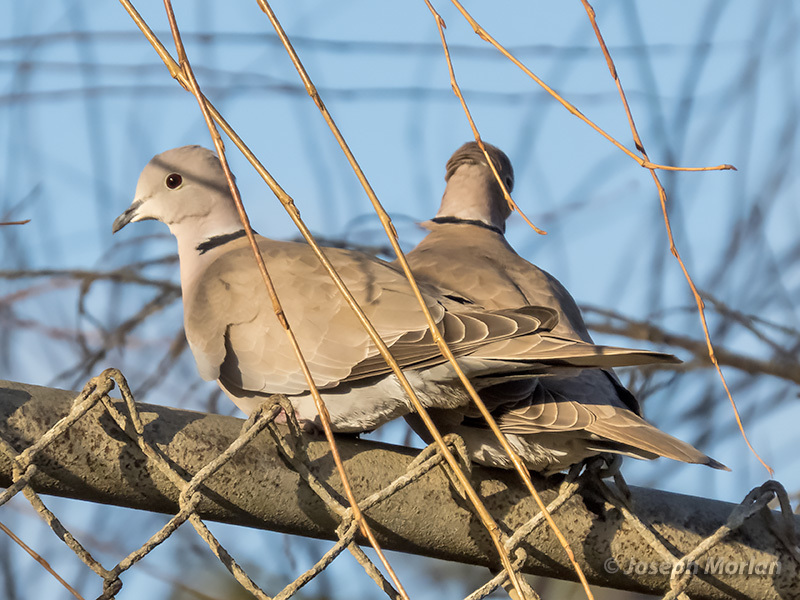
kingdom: Animalia
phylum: Chordata
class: Aves
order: Columbiformes
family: Columbidae
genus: Streptopelia
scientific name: Streptopelia decaocto
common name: Eurasian collared dove
